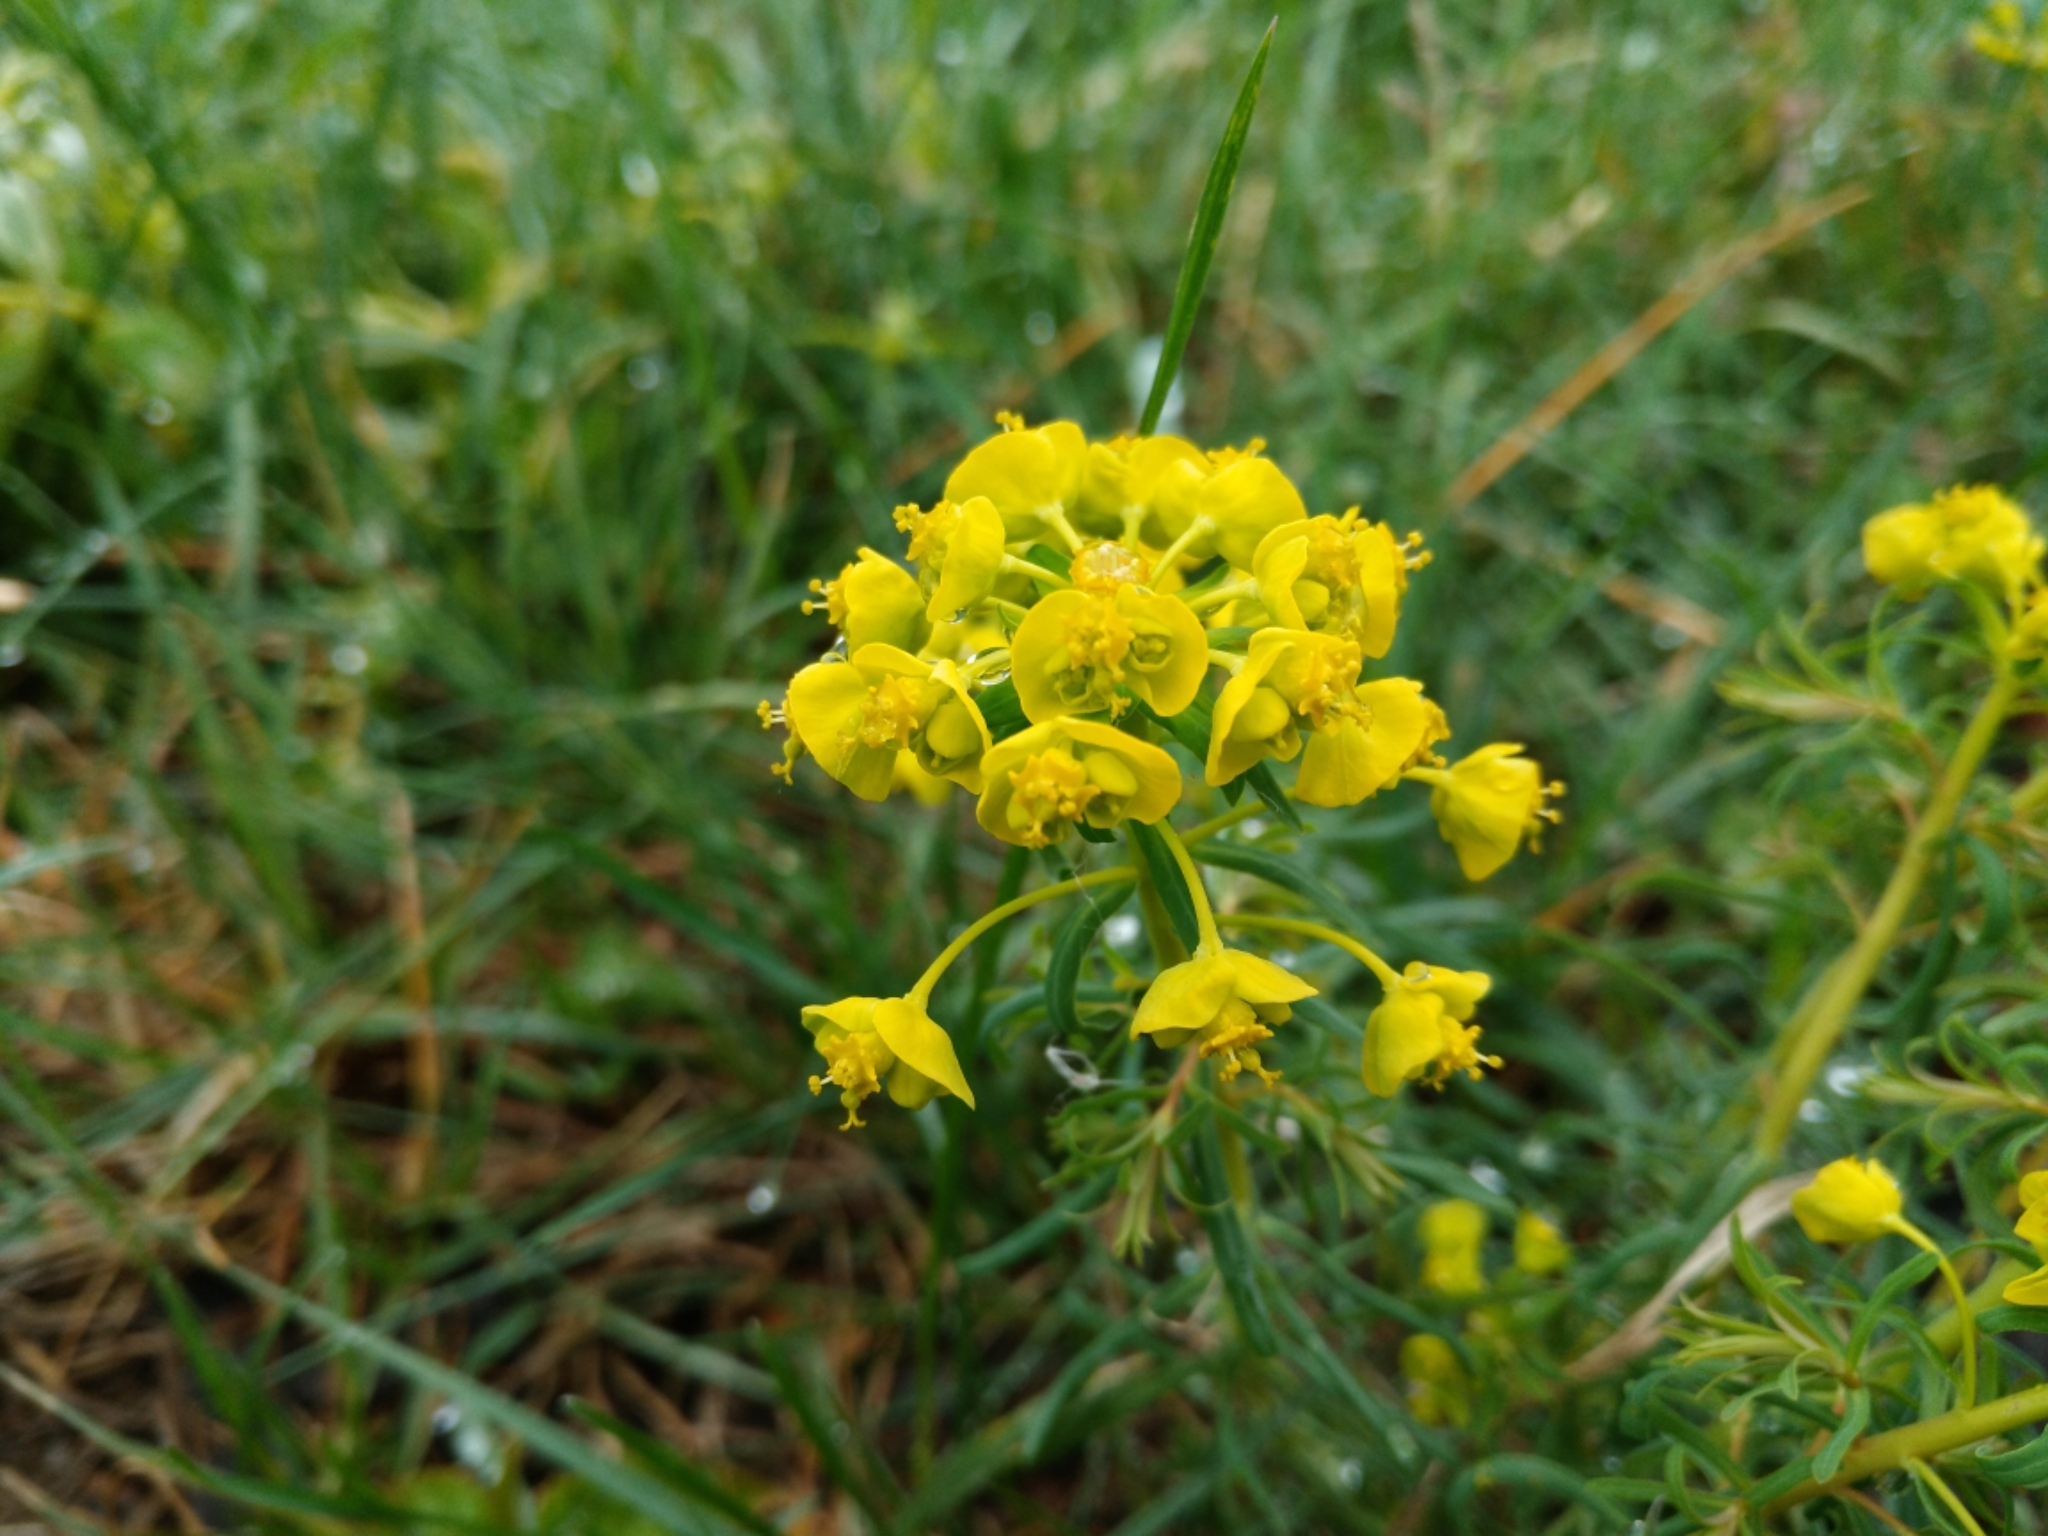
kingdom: Plantae
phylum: Tracheophyta
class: Magnoliopsida
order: Malpighiales
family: Euphorbiaceae
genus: Euphorbia
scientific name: Euphorbia cyparissias
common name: Cypress spurge
